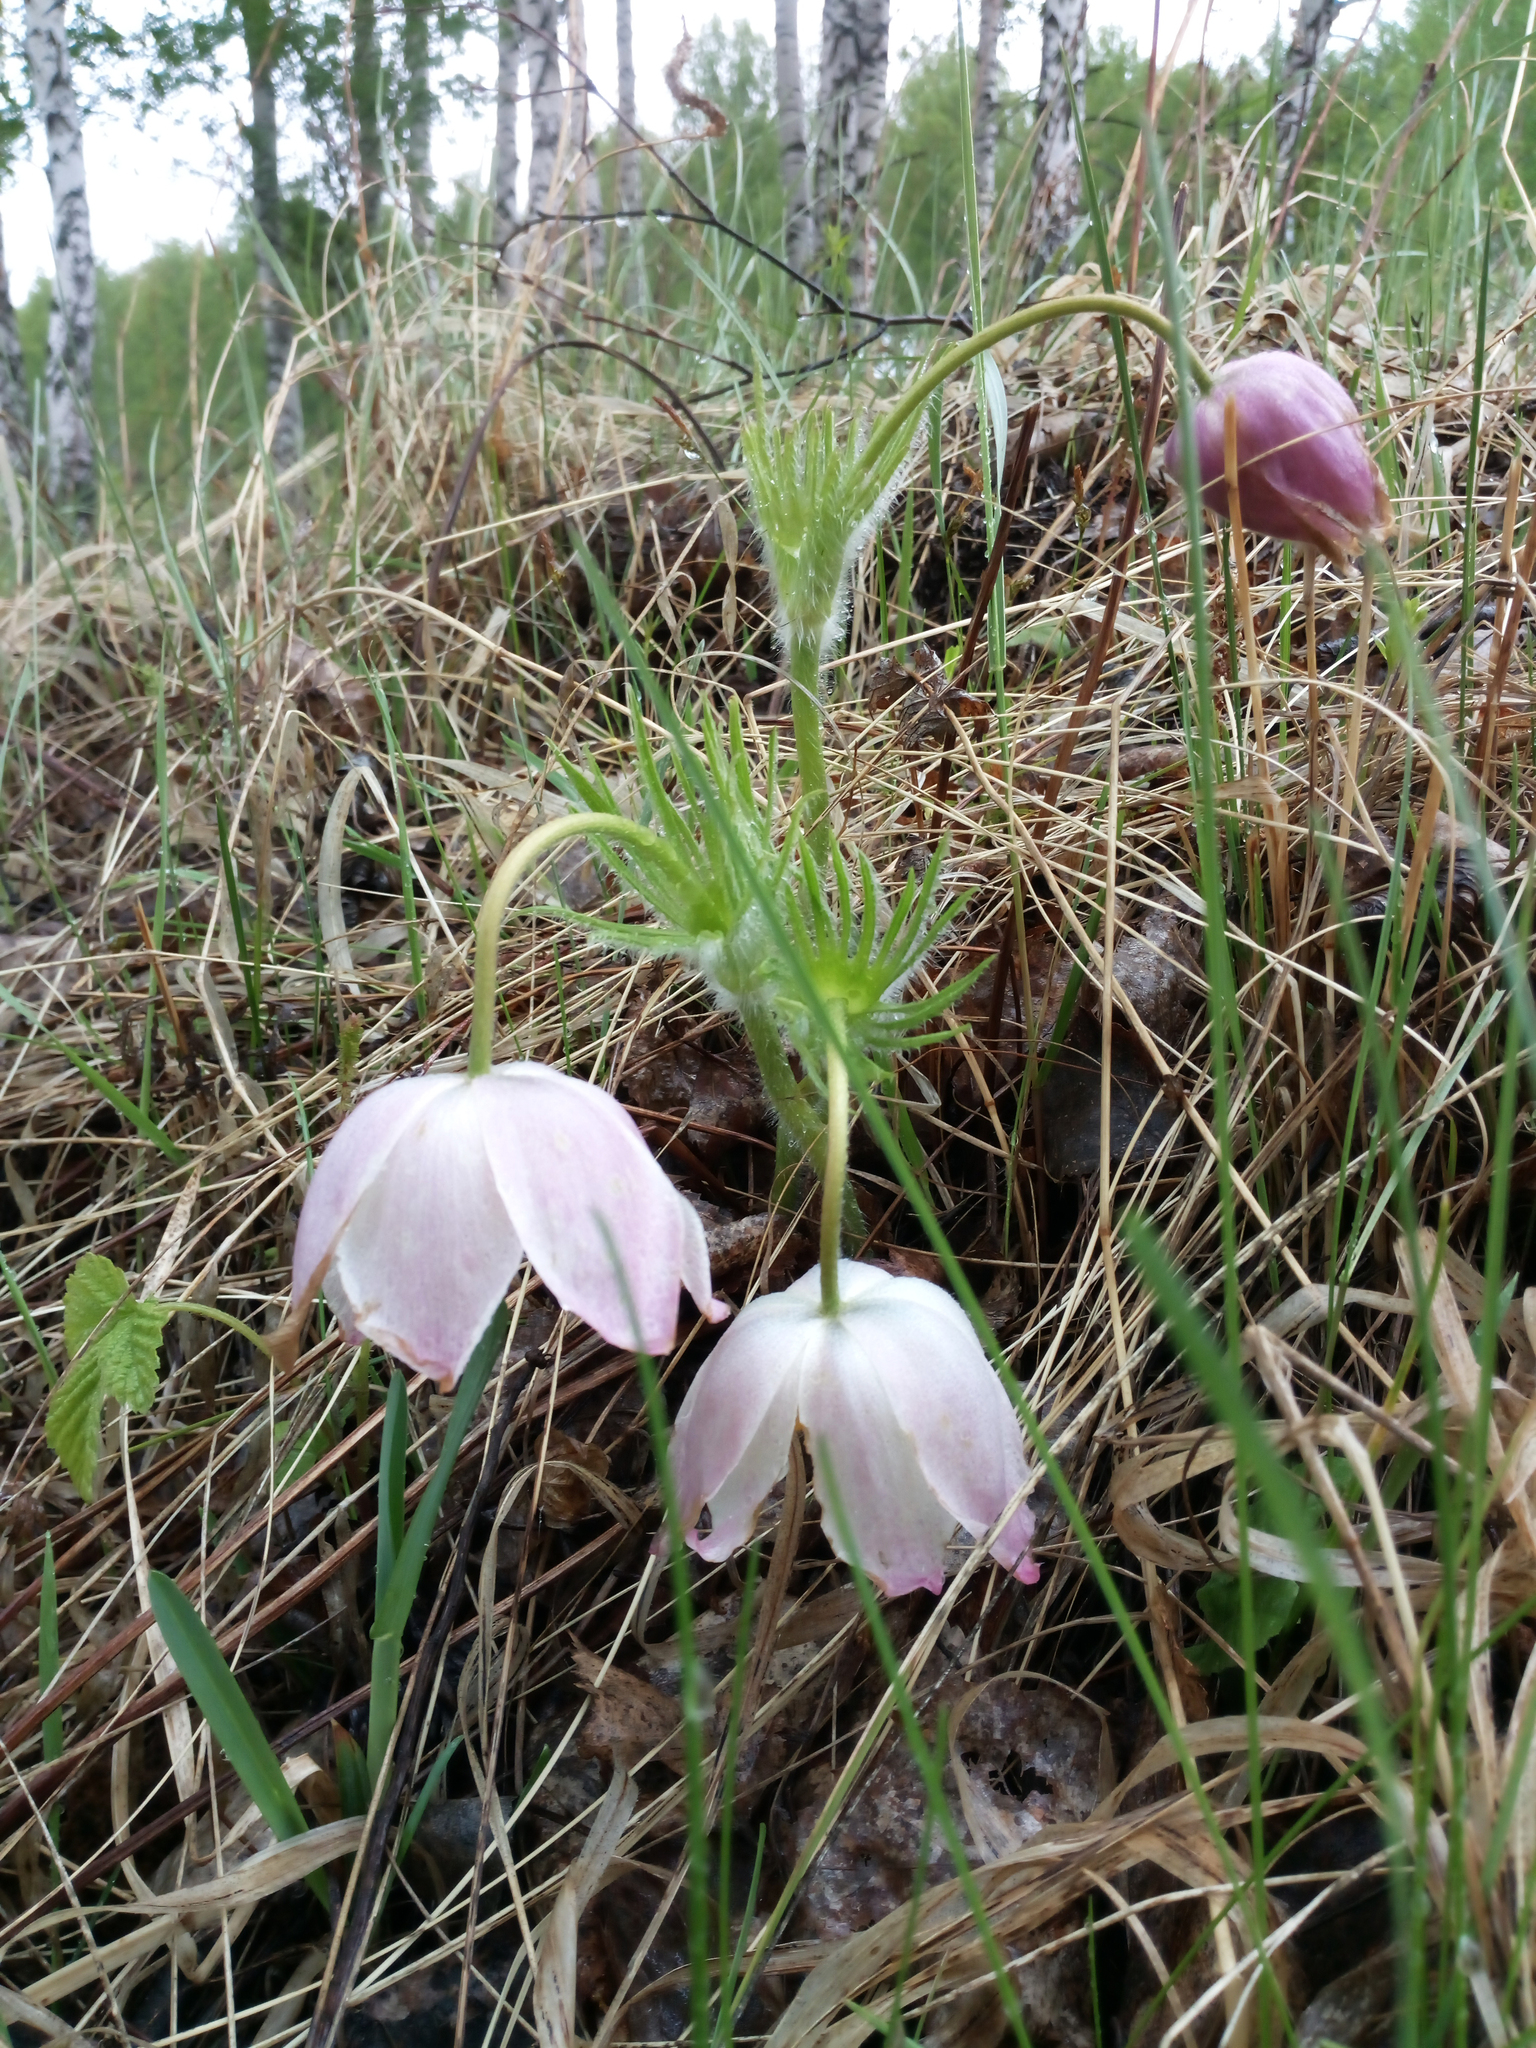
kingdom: Plantae
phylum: Tracheophyta
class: Magnoliopsida
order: Ranunculales
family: Ranunculaceae
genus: Pulsatilla
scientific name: Pulsatilla patens
